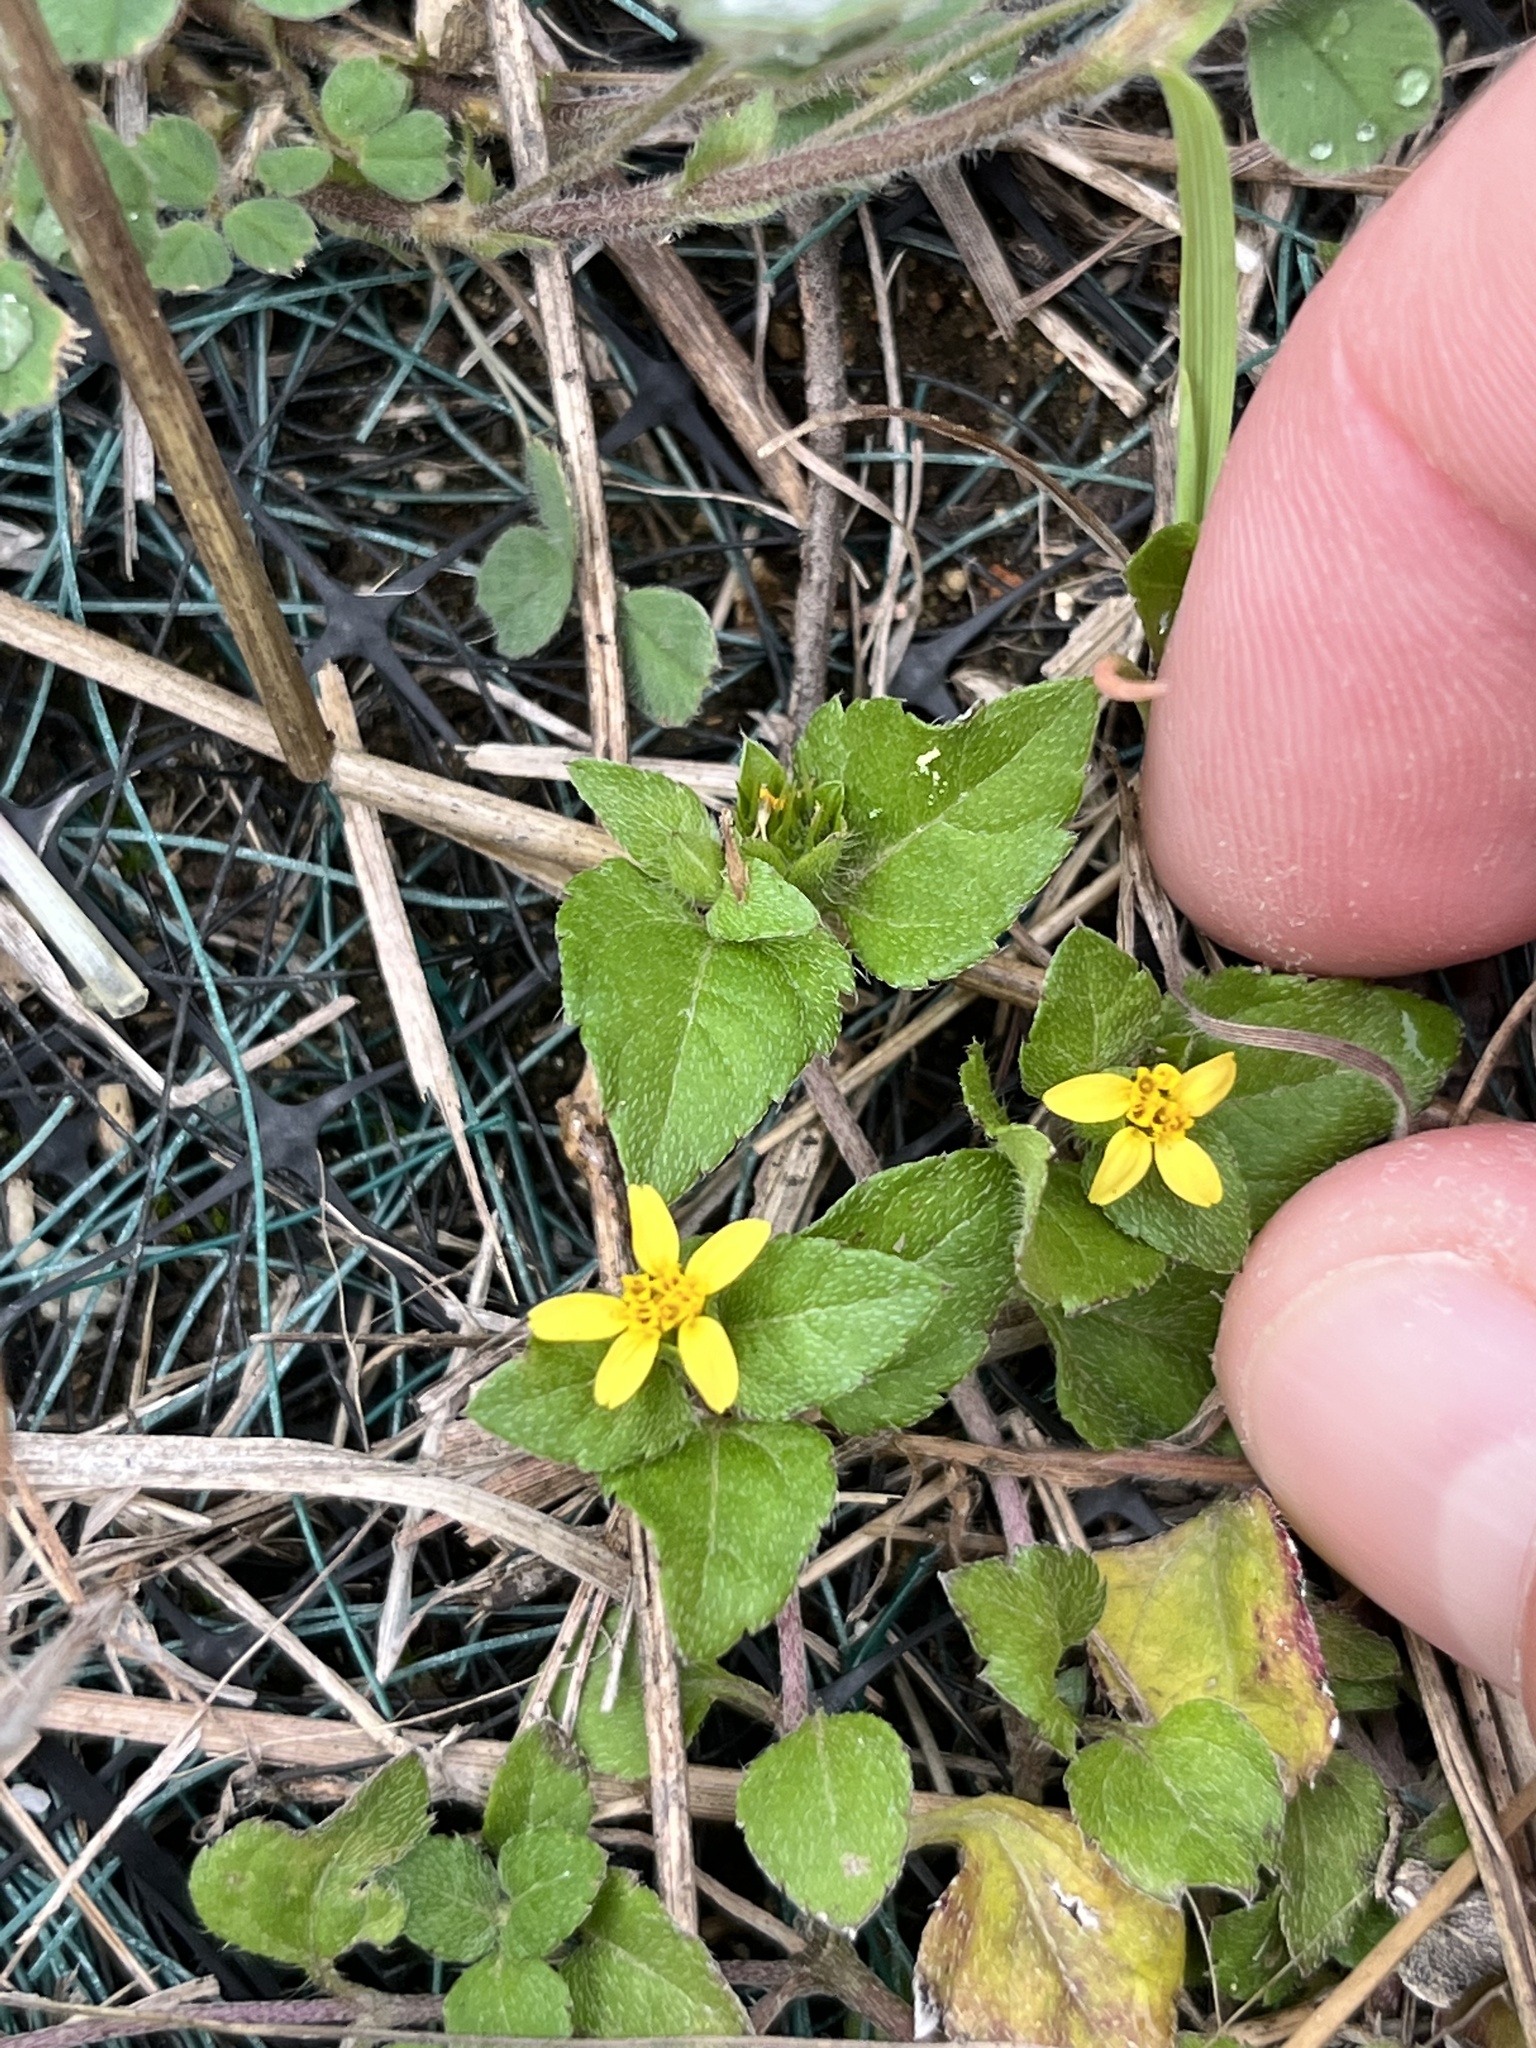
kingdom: Plantae
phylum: Tracheophyta
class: Magnoliopsida
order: Asterales
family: Asteraceae
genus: Calyptocarpus
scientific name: Calyptocarpus vialis
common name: Straggler daisy
